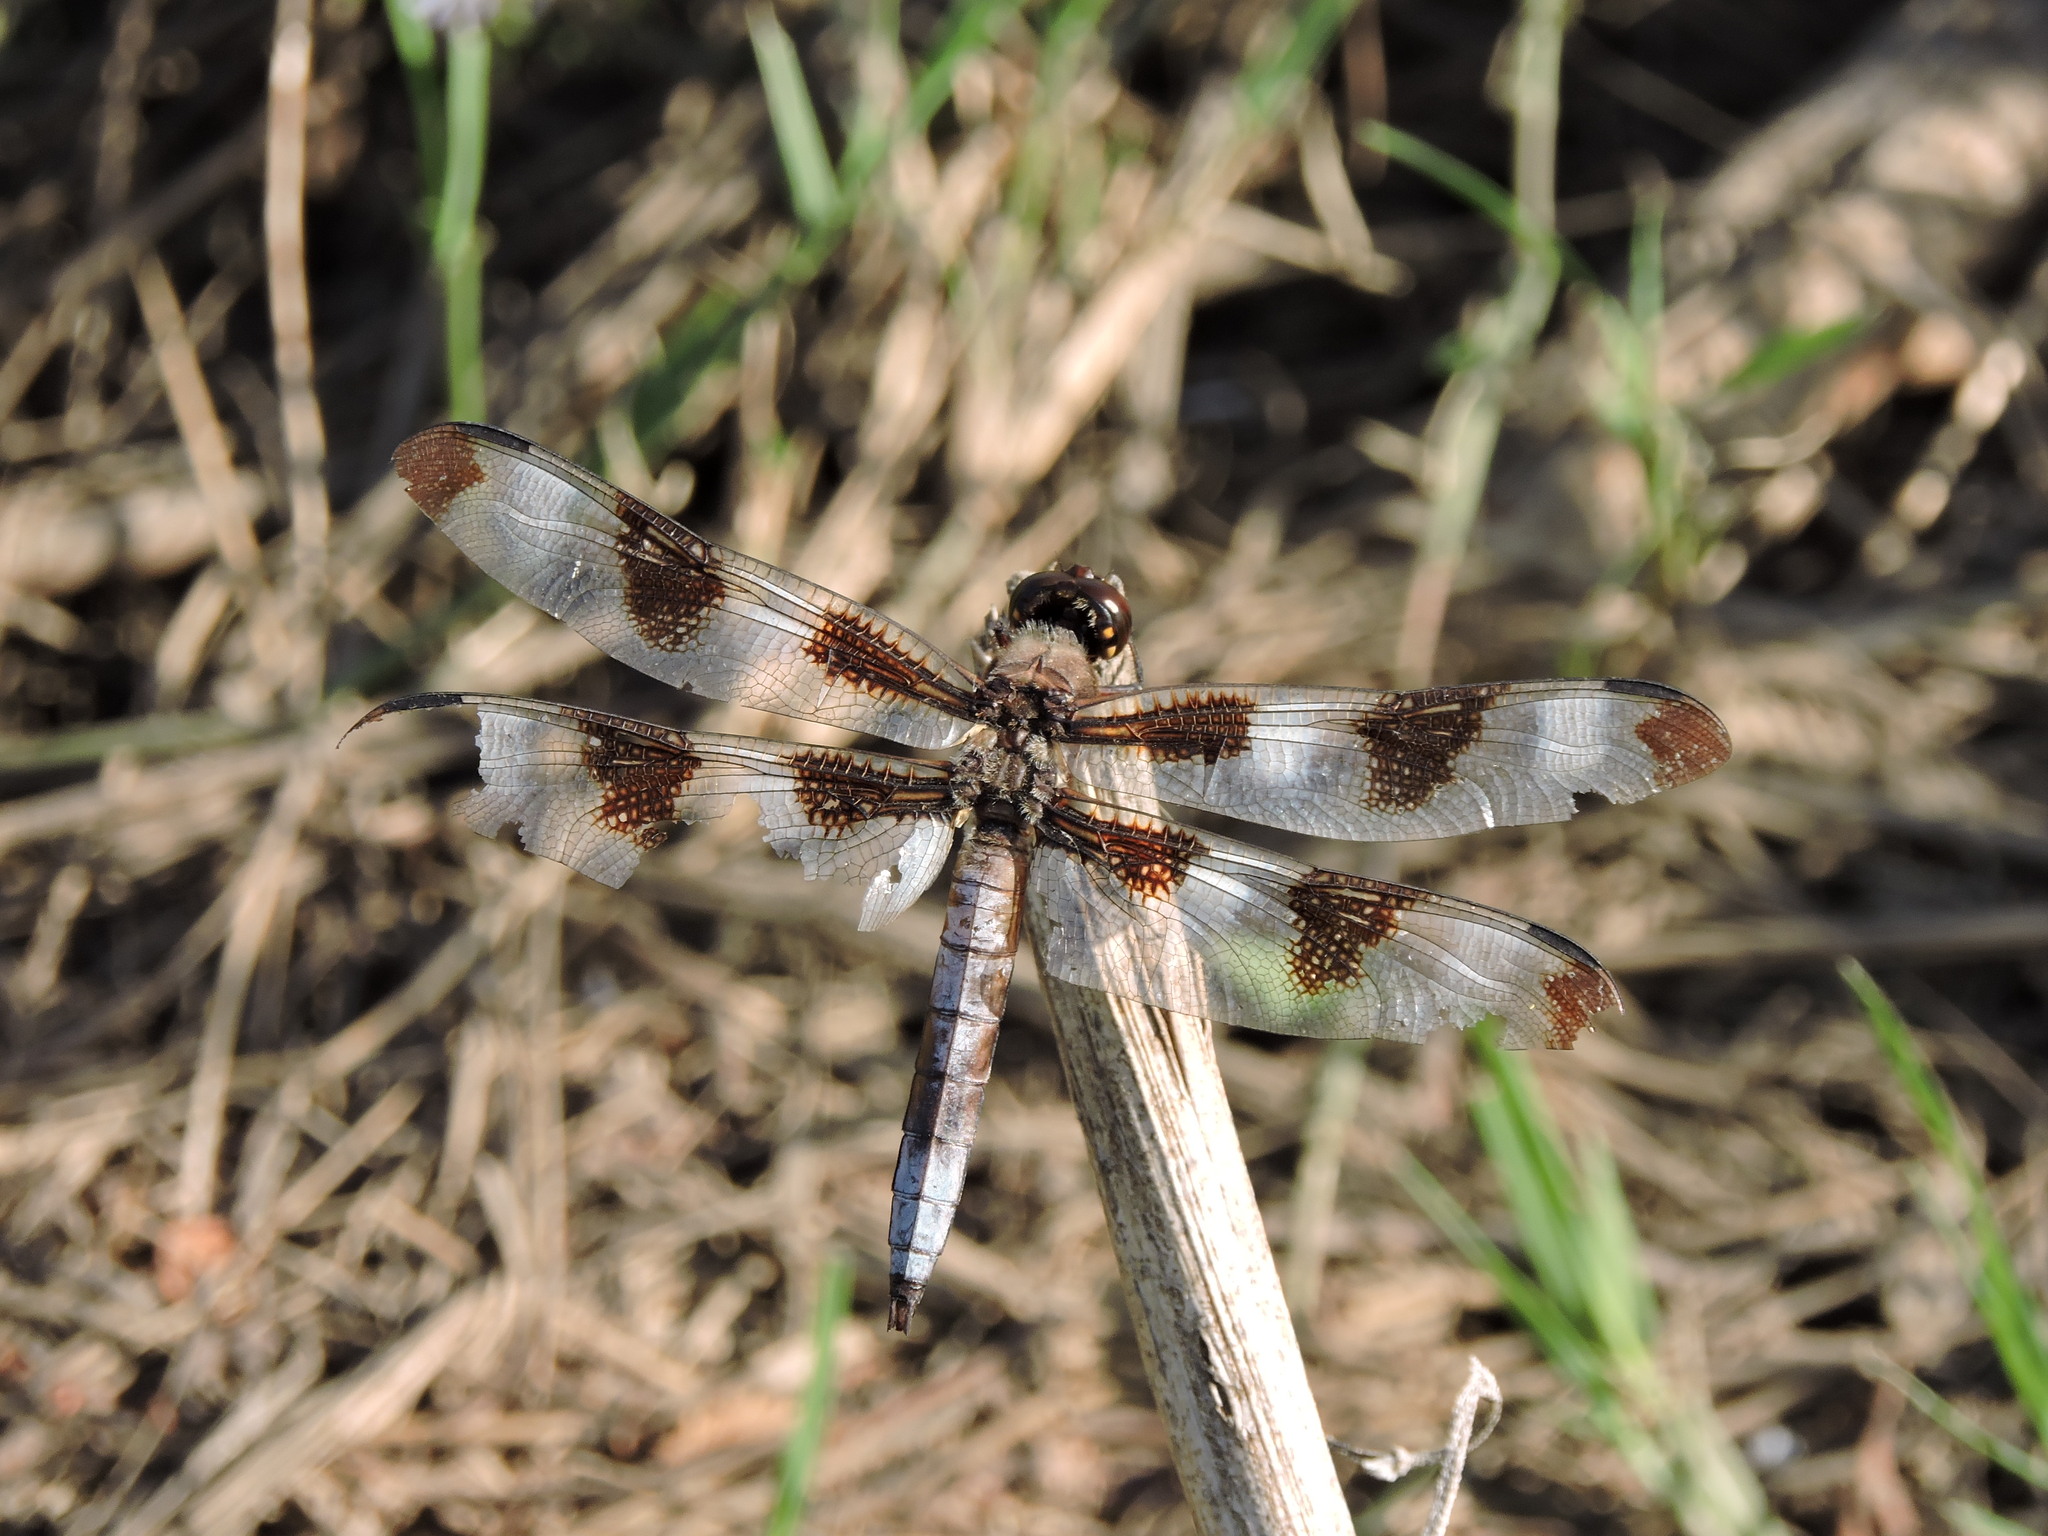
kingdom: Animalia
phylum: Arthropoda
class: Insecta
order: Odonata
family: Libellulidae
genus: Libellula
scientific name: Libellula pulchella
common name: Twelve-spotted skimmer
